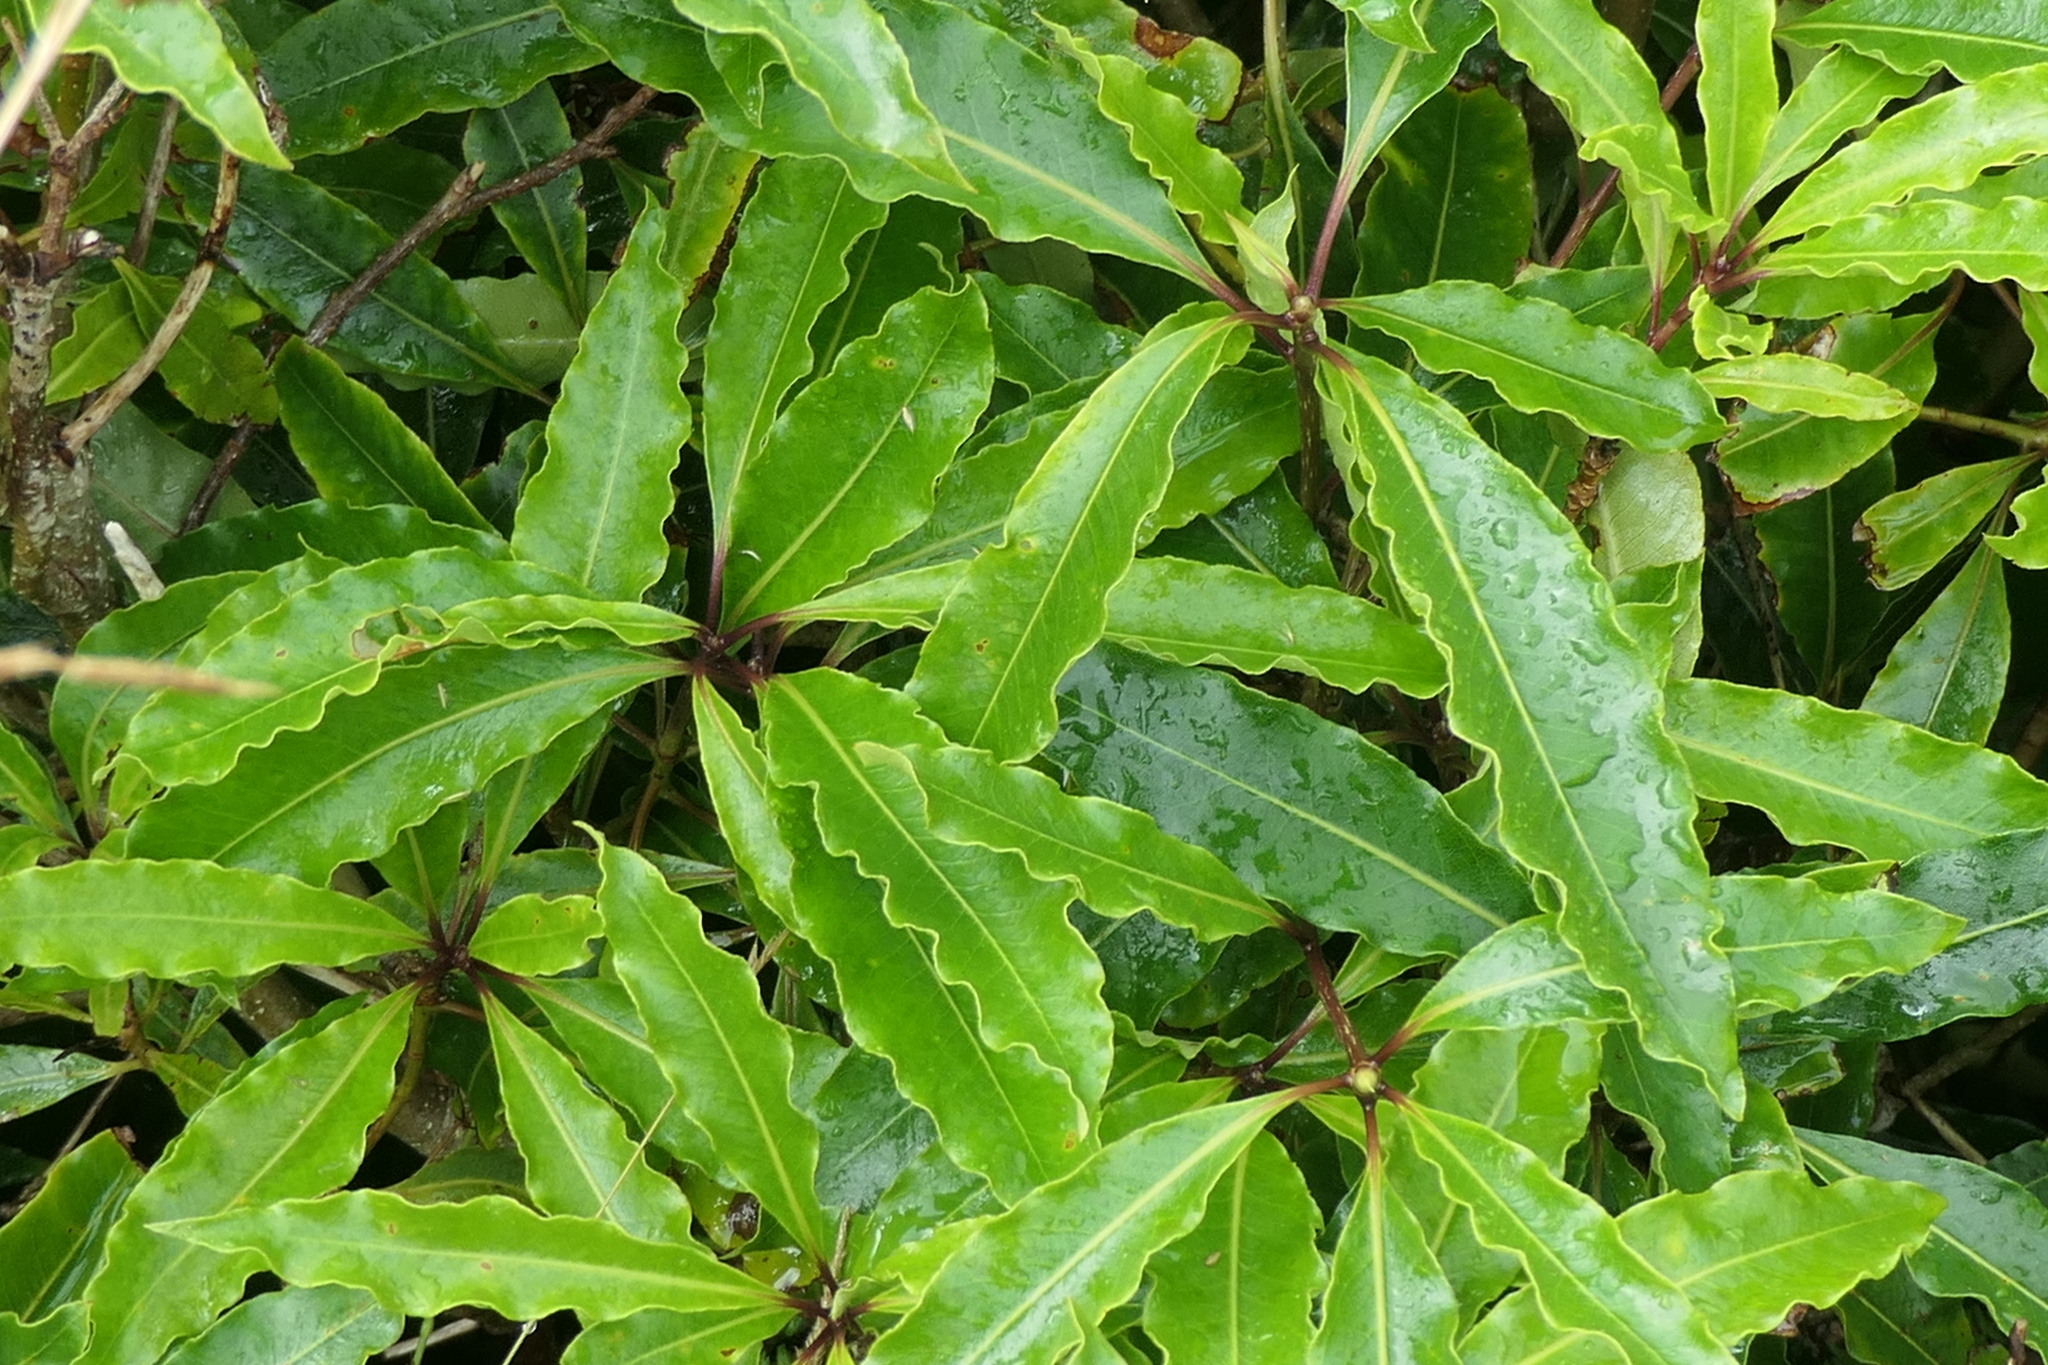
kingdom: Plantae
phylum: Tracheophyta
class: Magnoliopsida
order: Apiales
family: Pittosporaceae
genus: Pittosporum
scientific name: Pittosporum undulatum
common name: Australian cheesewood
